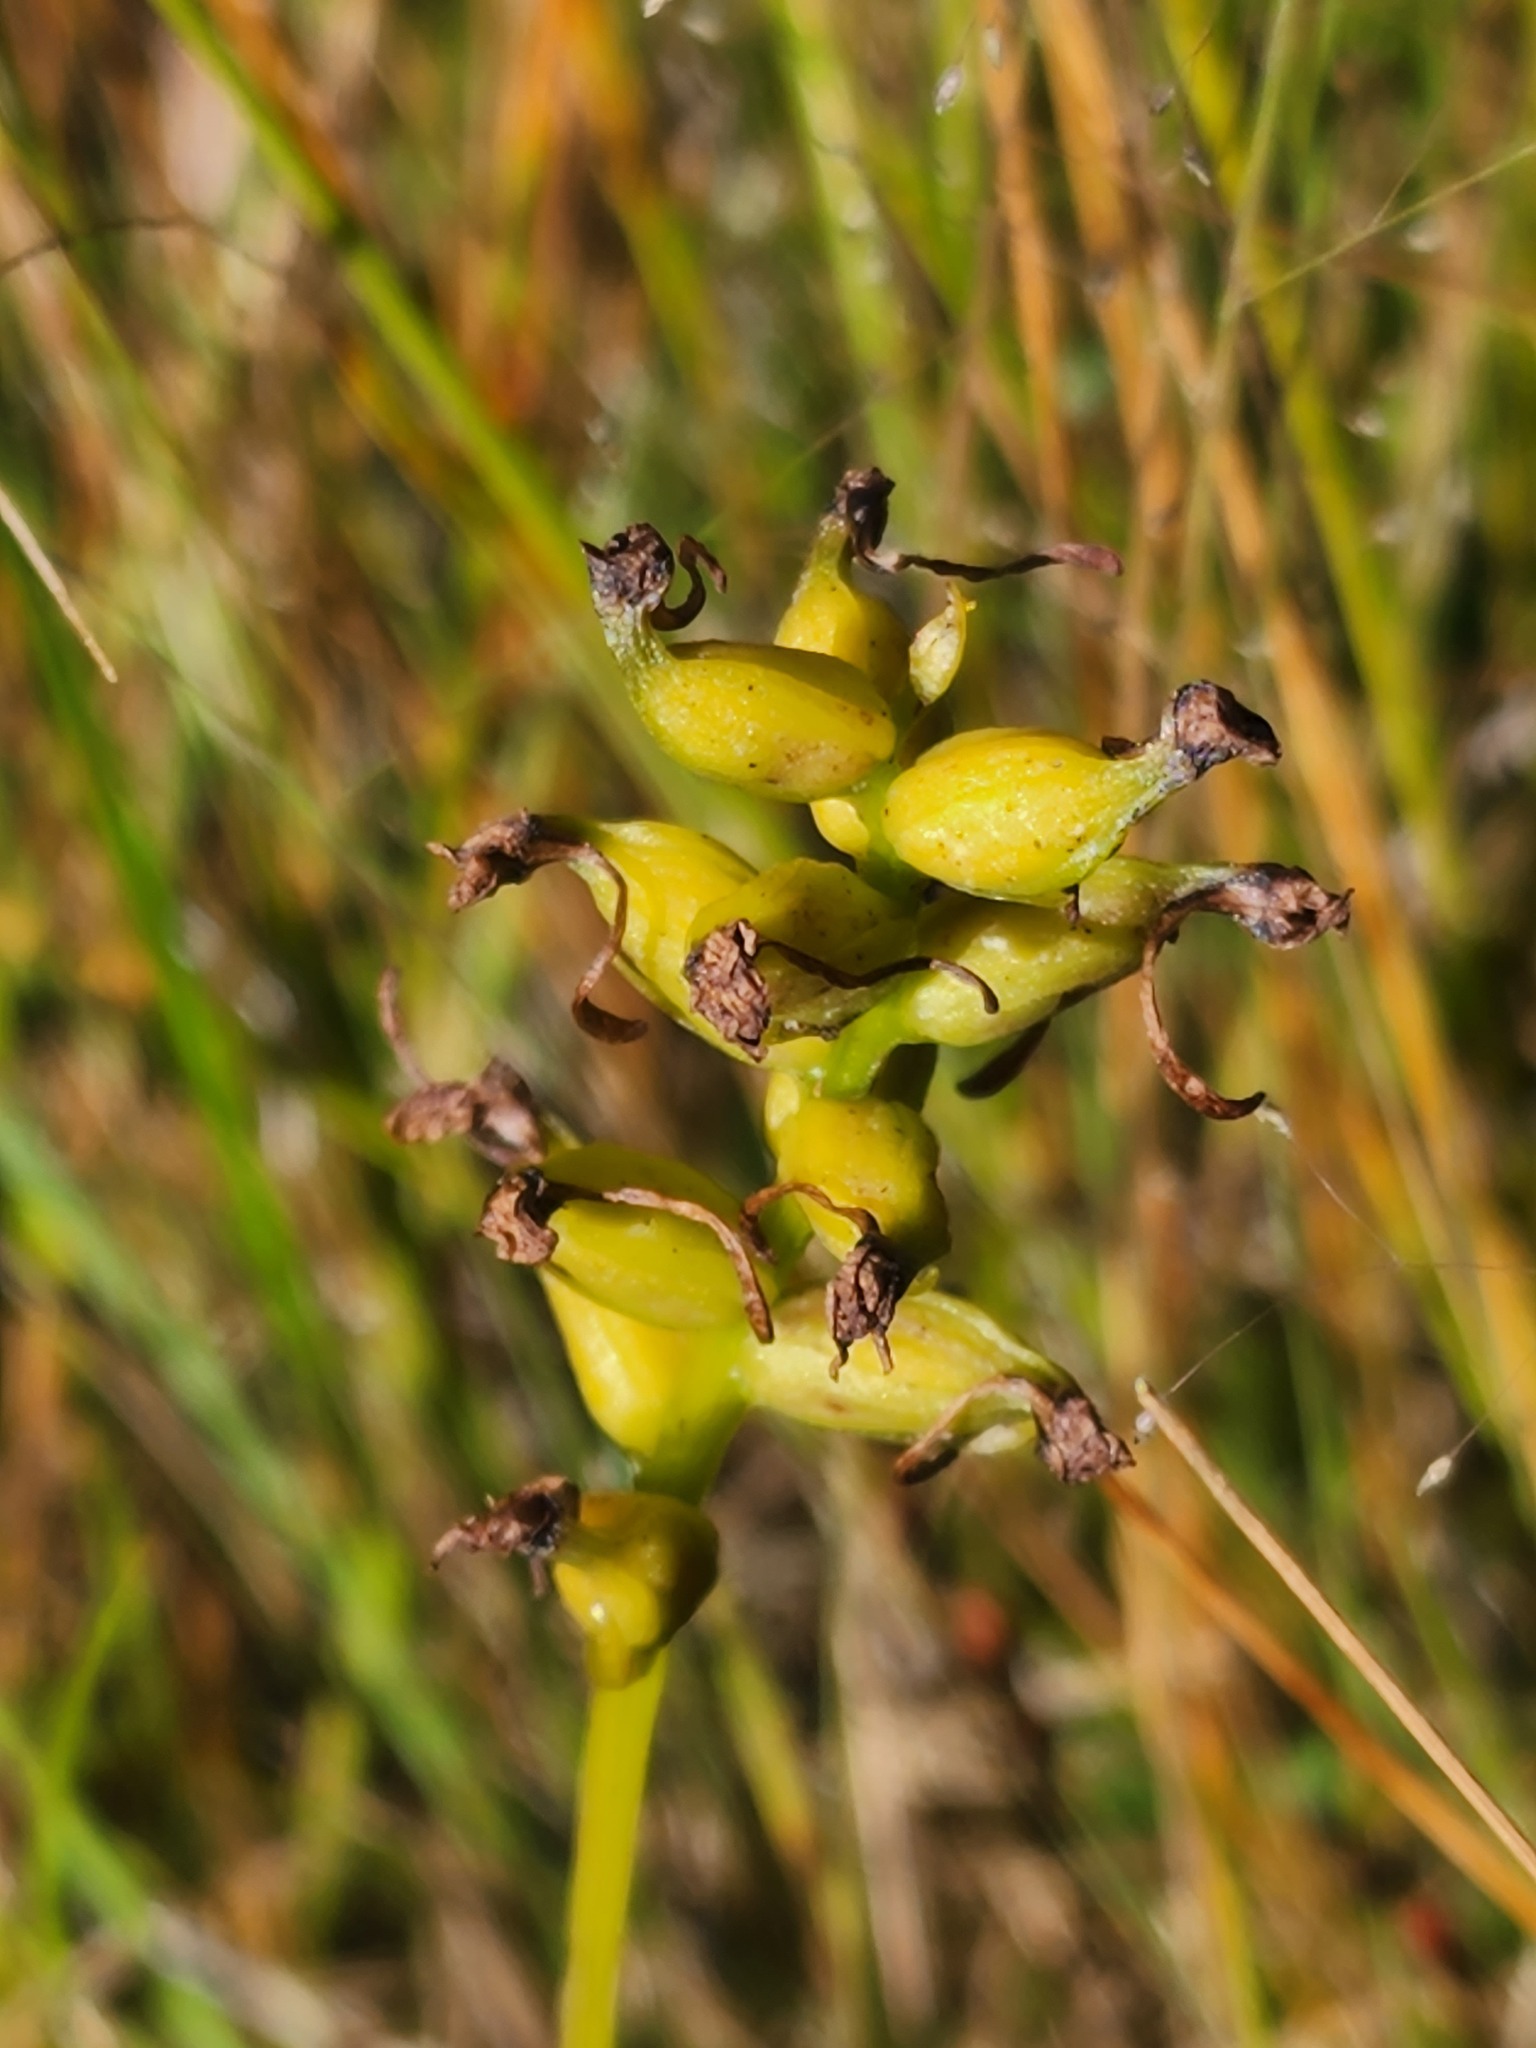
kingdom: Plantae
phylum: Tracheophyta
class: Liliopsida
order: Asparagales
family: Orchidaceae
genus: Platanthera
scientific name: Platanthera clavellata
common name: Club-spur orchid
